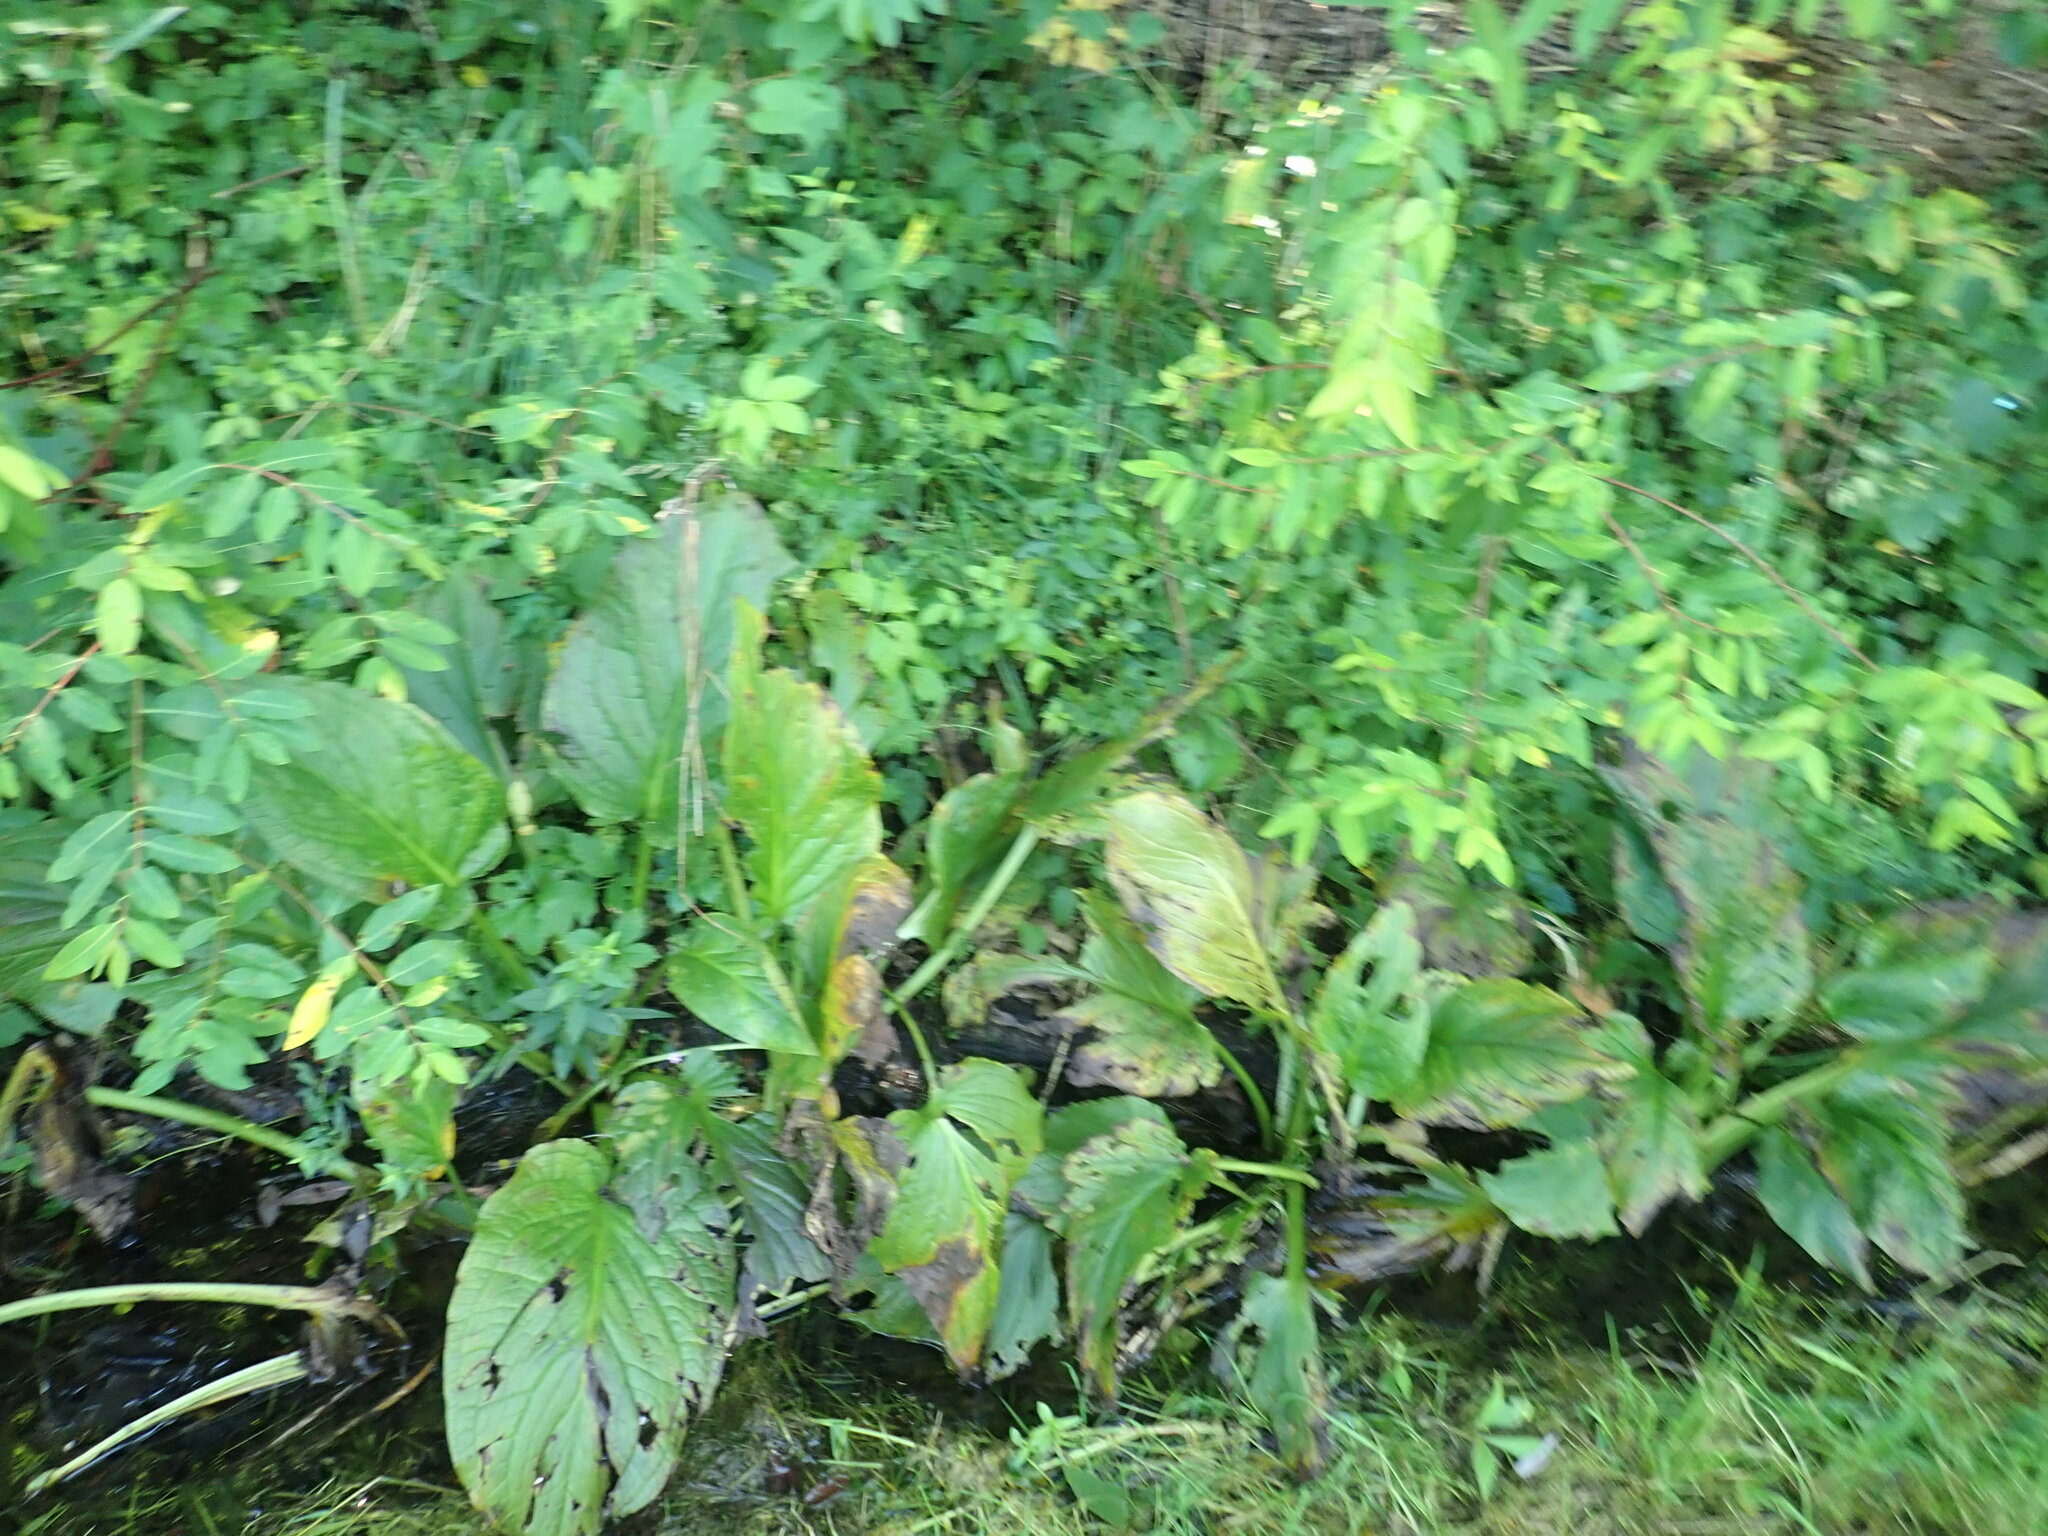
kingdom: Plantae
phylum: Tracheophyta
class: Liliopsida
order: Alismatales
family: Araceae
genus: Symplocarpus
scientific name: Symplocarpus foetidus
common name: Eastern skunk cabbage
